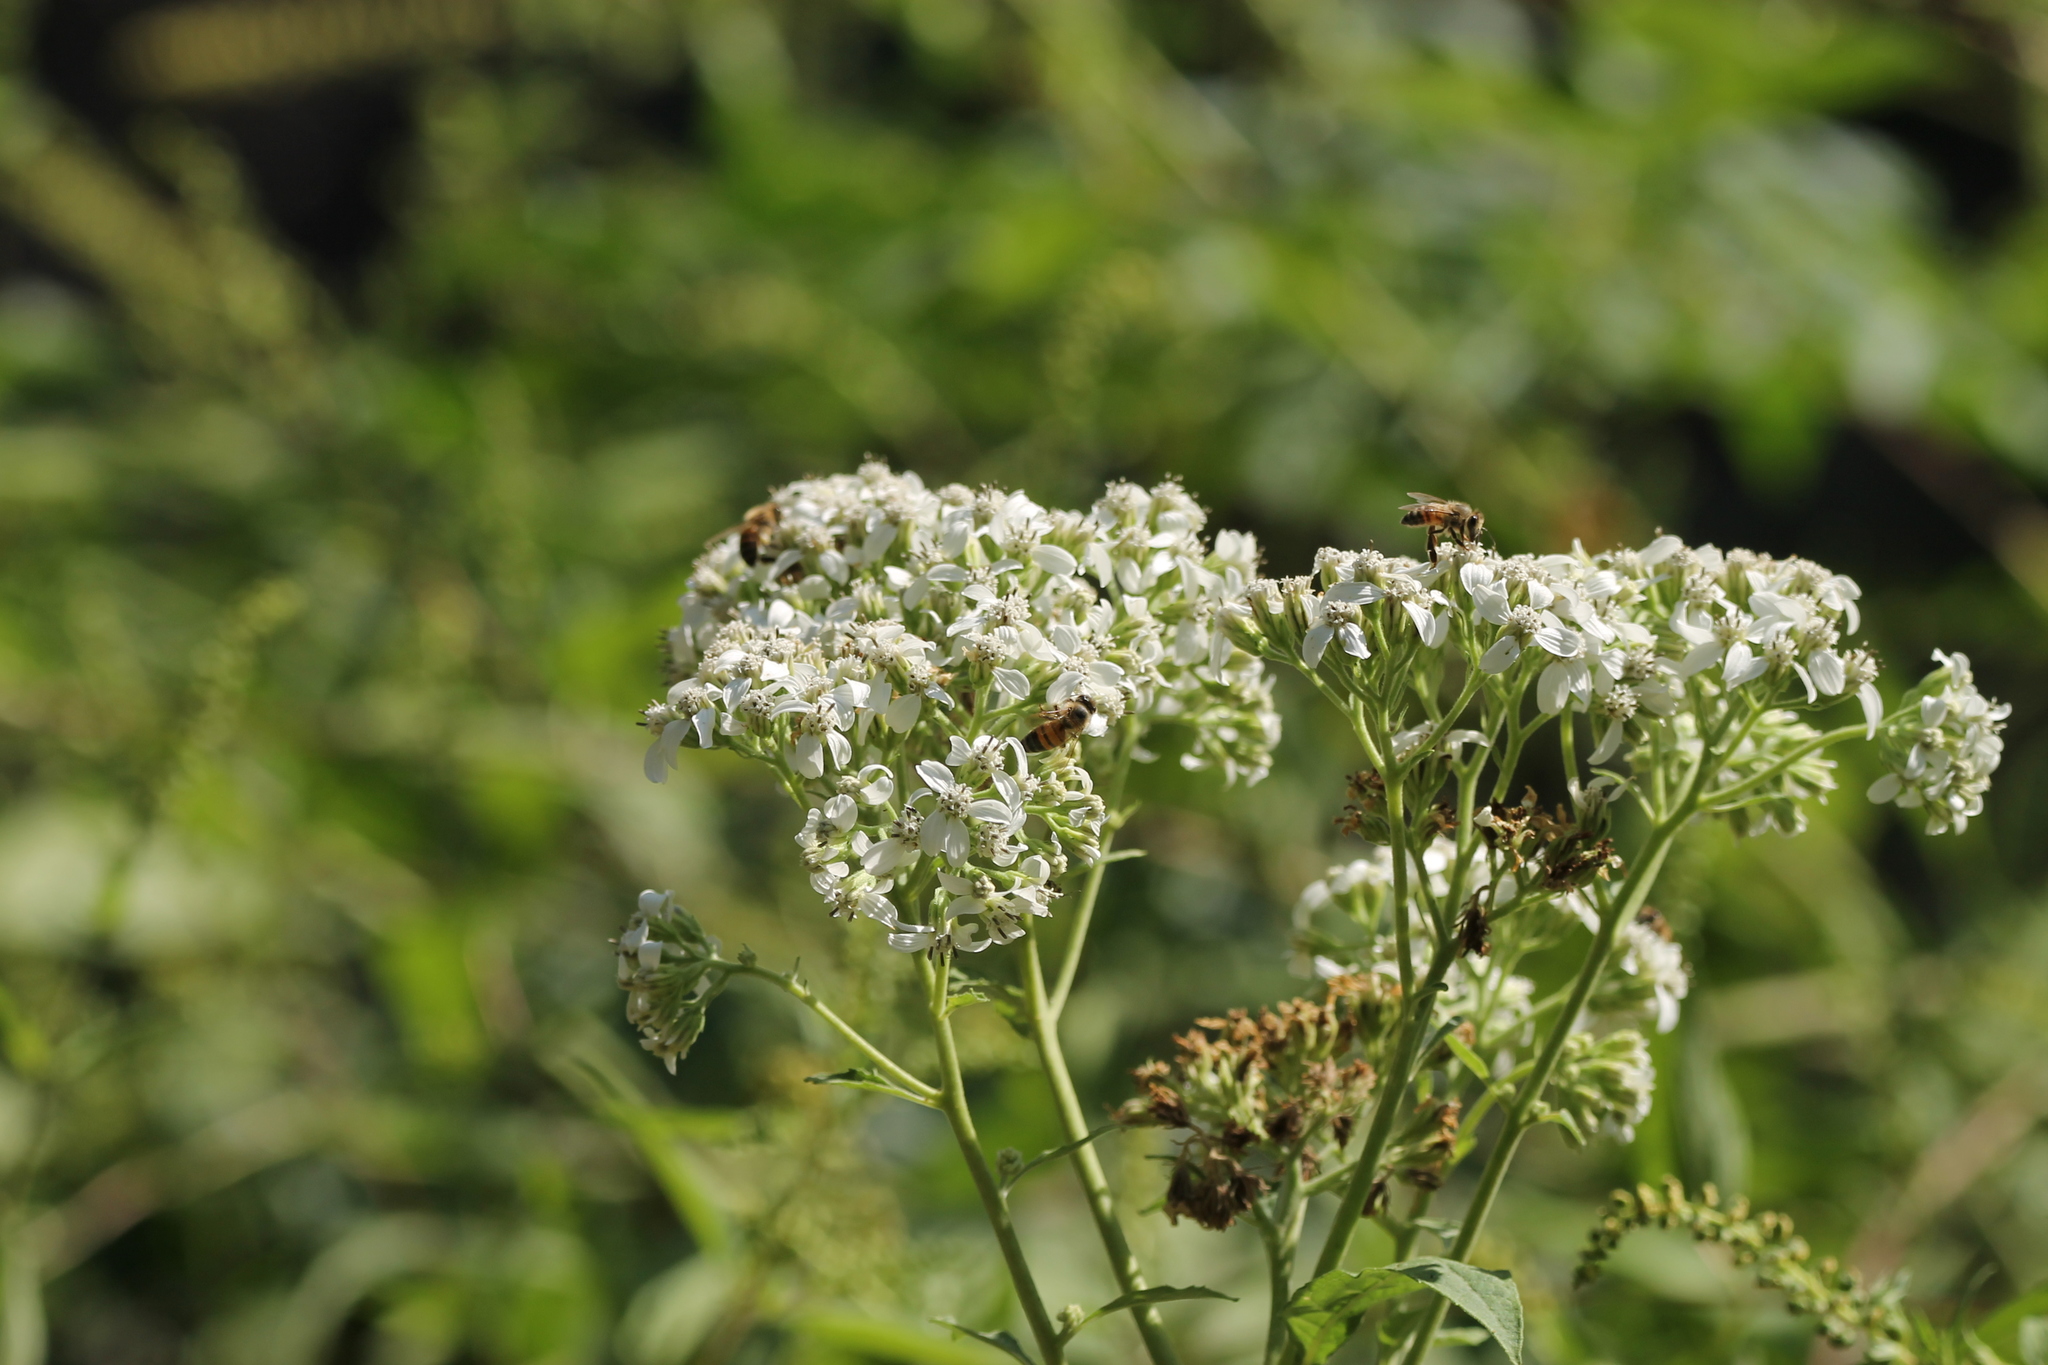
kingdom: Animalia
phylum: Arthropoda
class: Insecta
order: Hymenoptera
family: Apidae
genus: Apis
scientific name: Apis mellifera
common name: Honey bee
